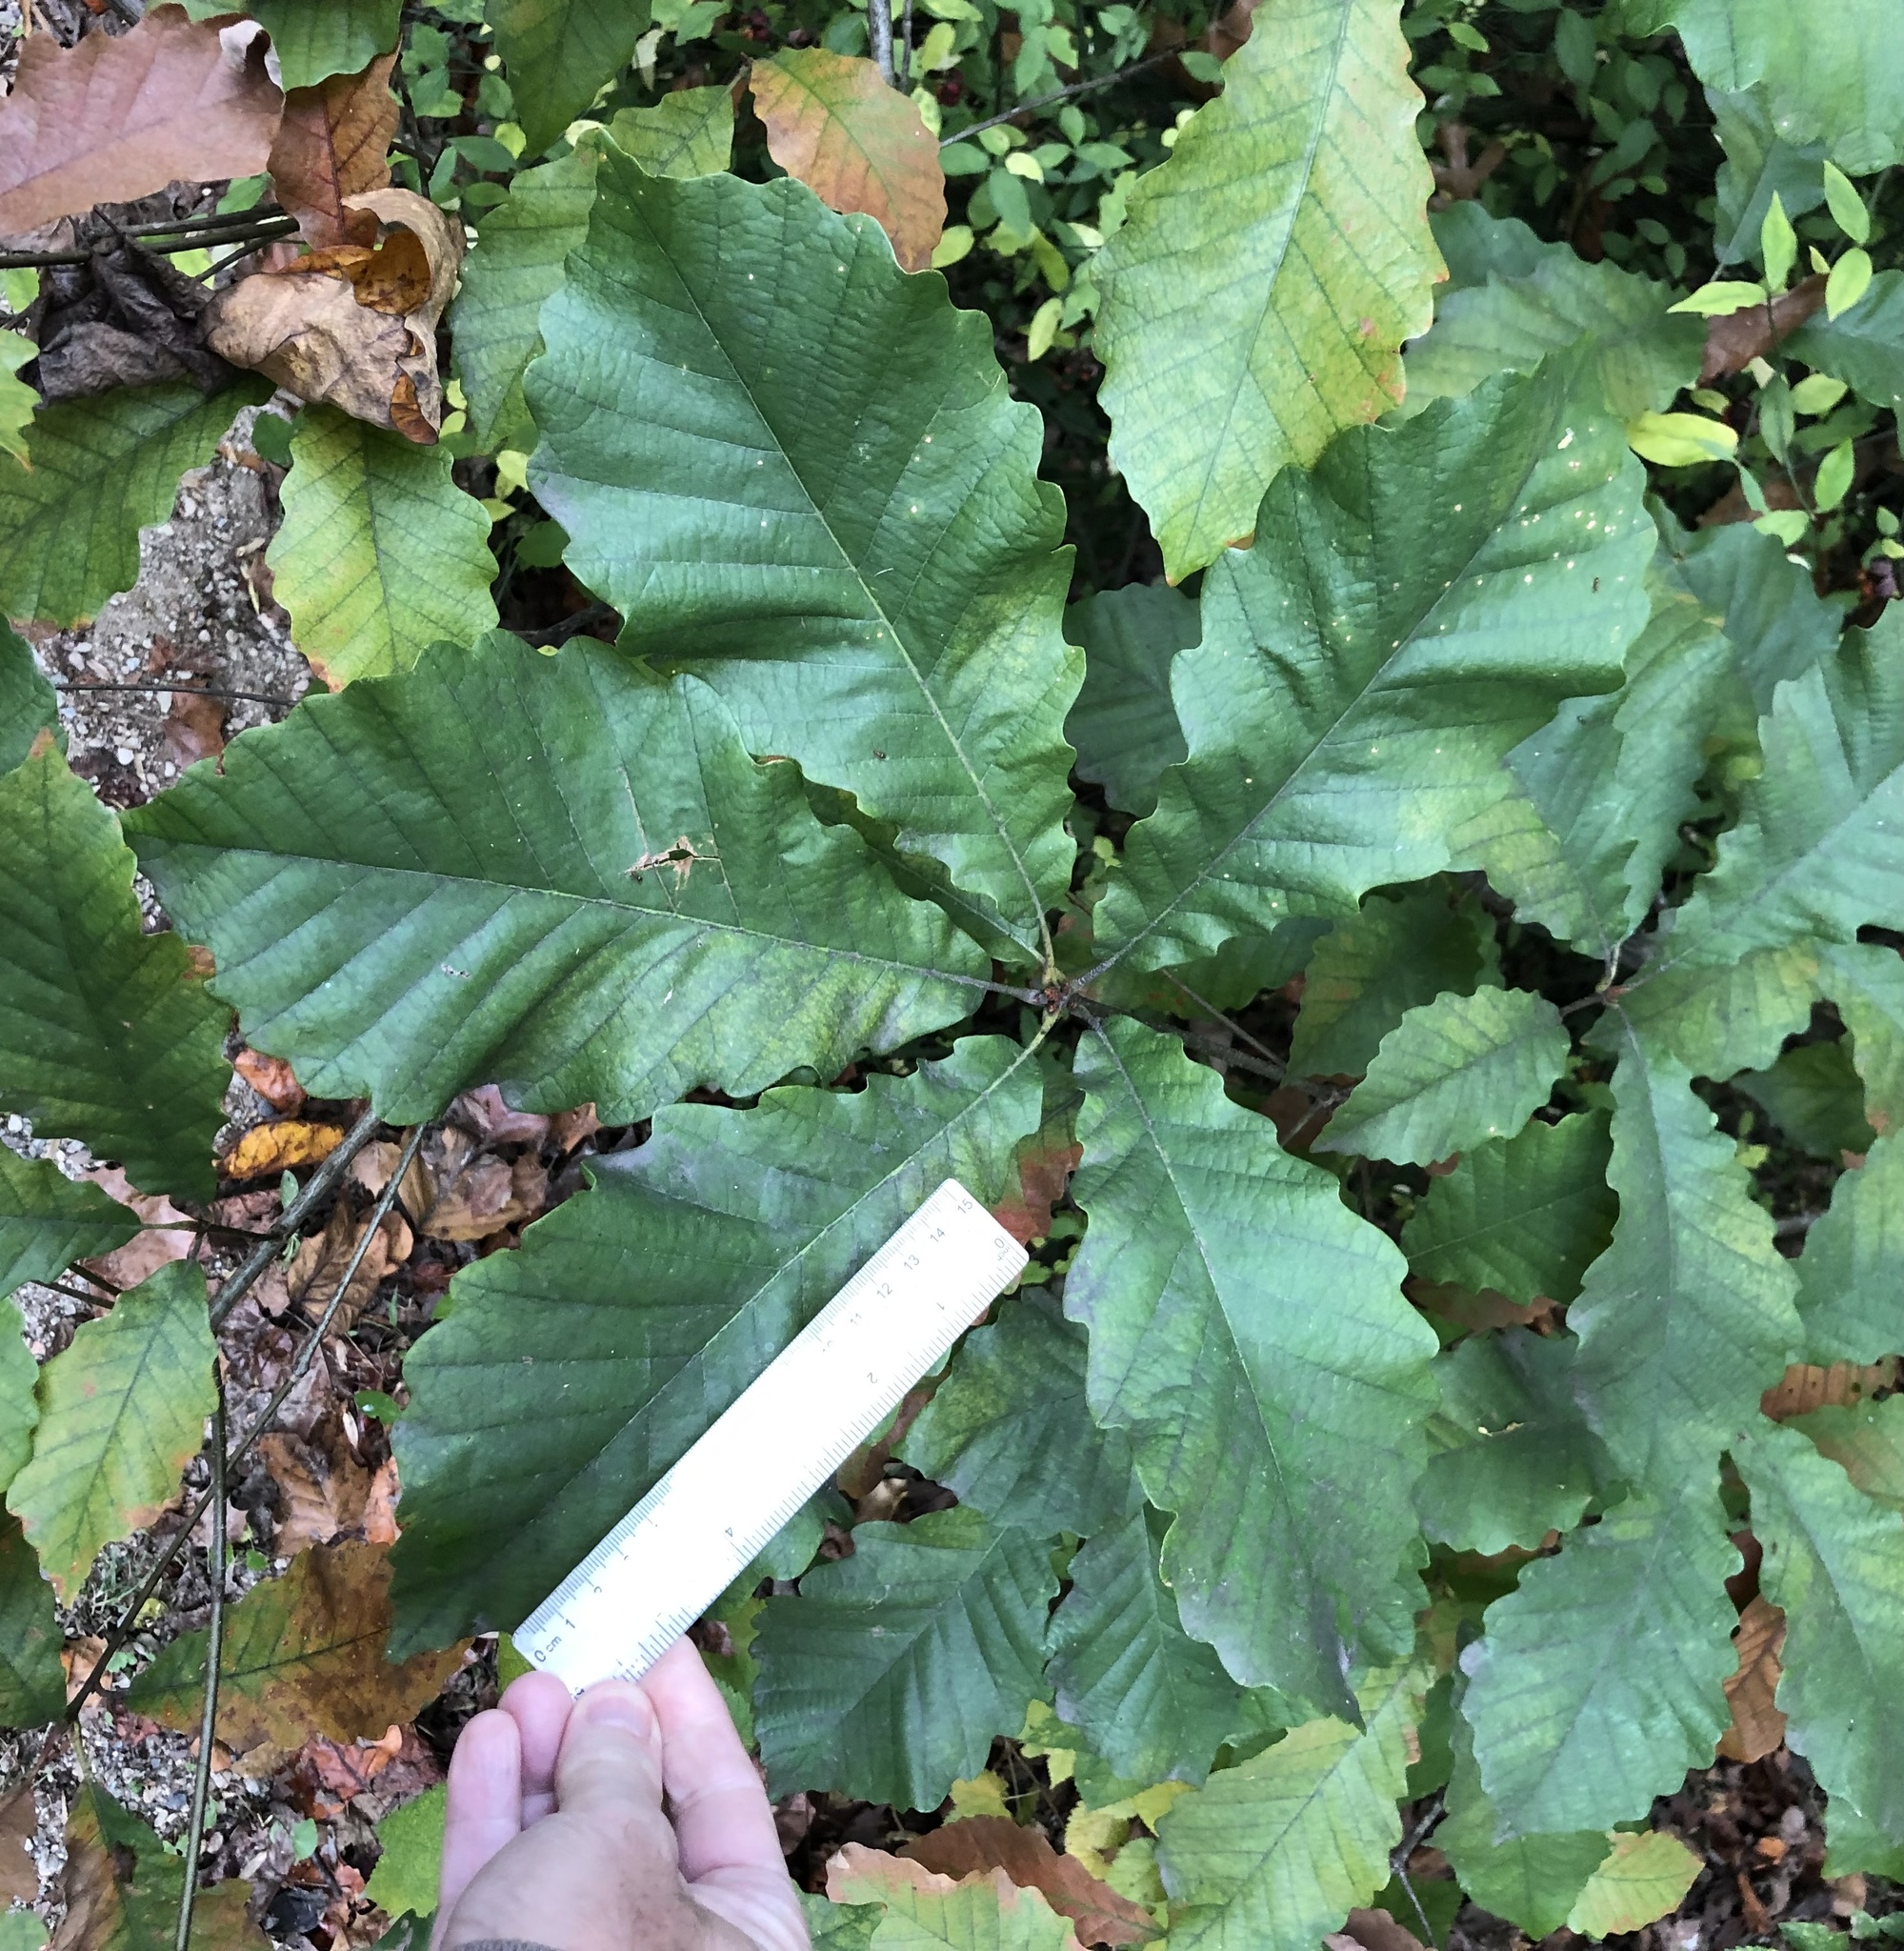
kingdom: Plantae
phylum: Tracheophyta
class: Magnoliopsida
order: Fagales
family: Fagaceae
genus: Quercus
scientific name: Quercus michauxii
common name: Swamp chestnut oak
